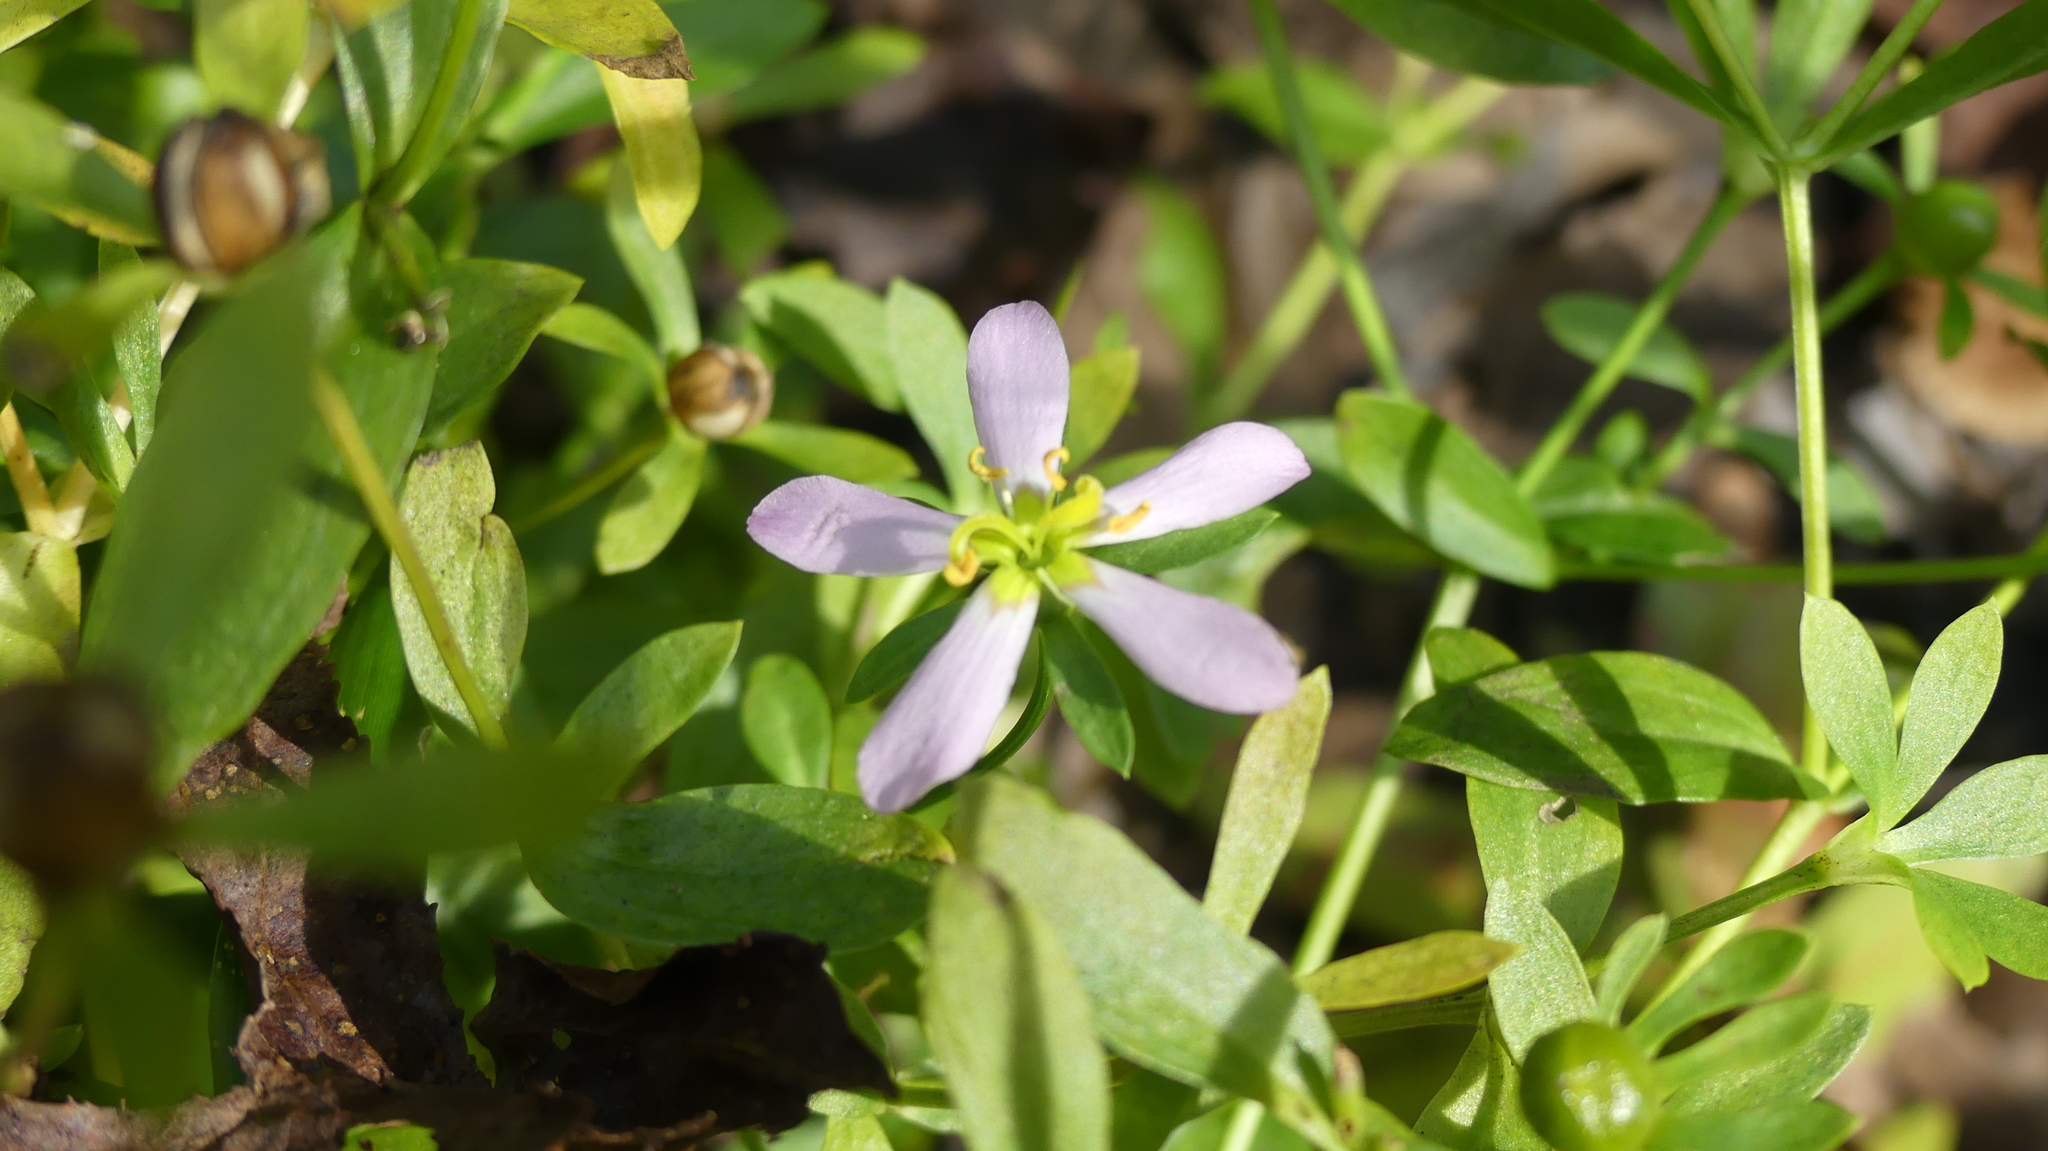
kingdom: Plantae
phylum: Tracheophyta
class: Magnoliopsida
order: Gentianales
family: Gentianaceae
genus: Sabatia
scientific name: Sabatia calycina
